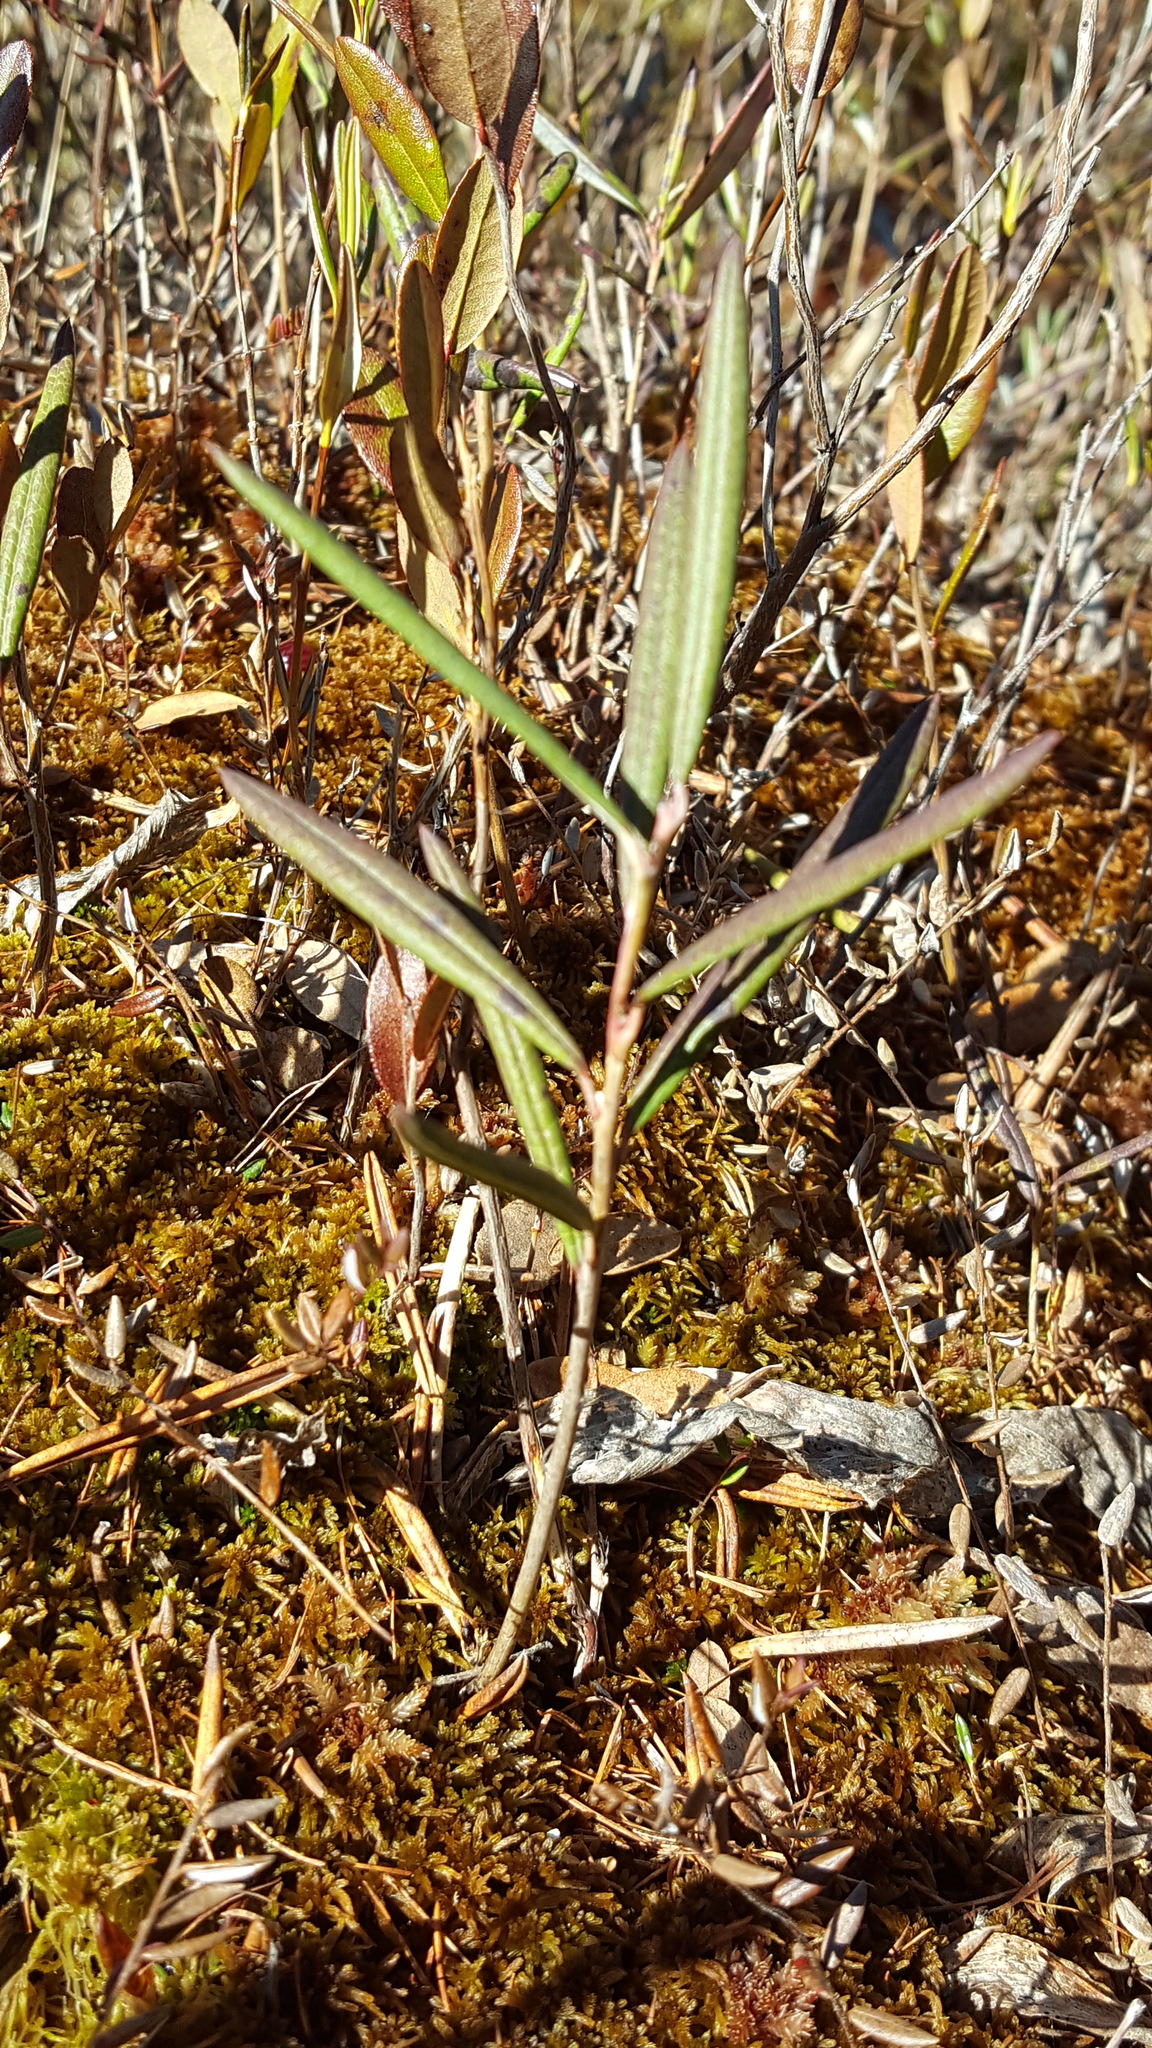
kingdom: Plantae
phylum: Tracheophyta
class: Magnoliopsida
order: Ericales
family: Ericaceae
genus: Andromeda
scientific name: Andromeda polifolia
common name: Bog-rosemary
